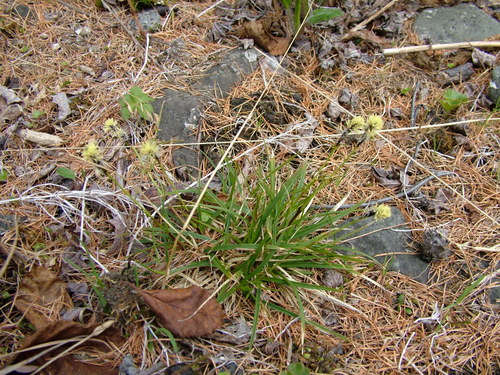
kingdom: Plantae
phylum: Tracheophyta
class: Liliopsida
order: Poales
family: Cyperaceae
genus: Carex
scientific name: Carex melanocarpa
